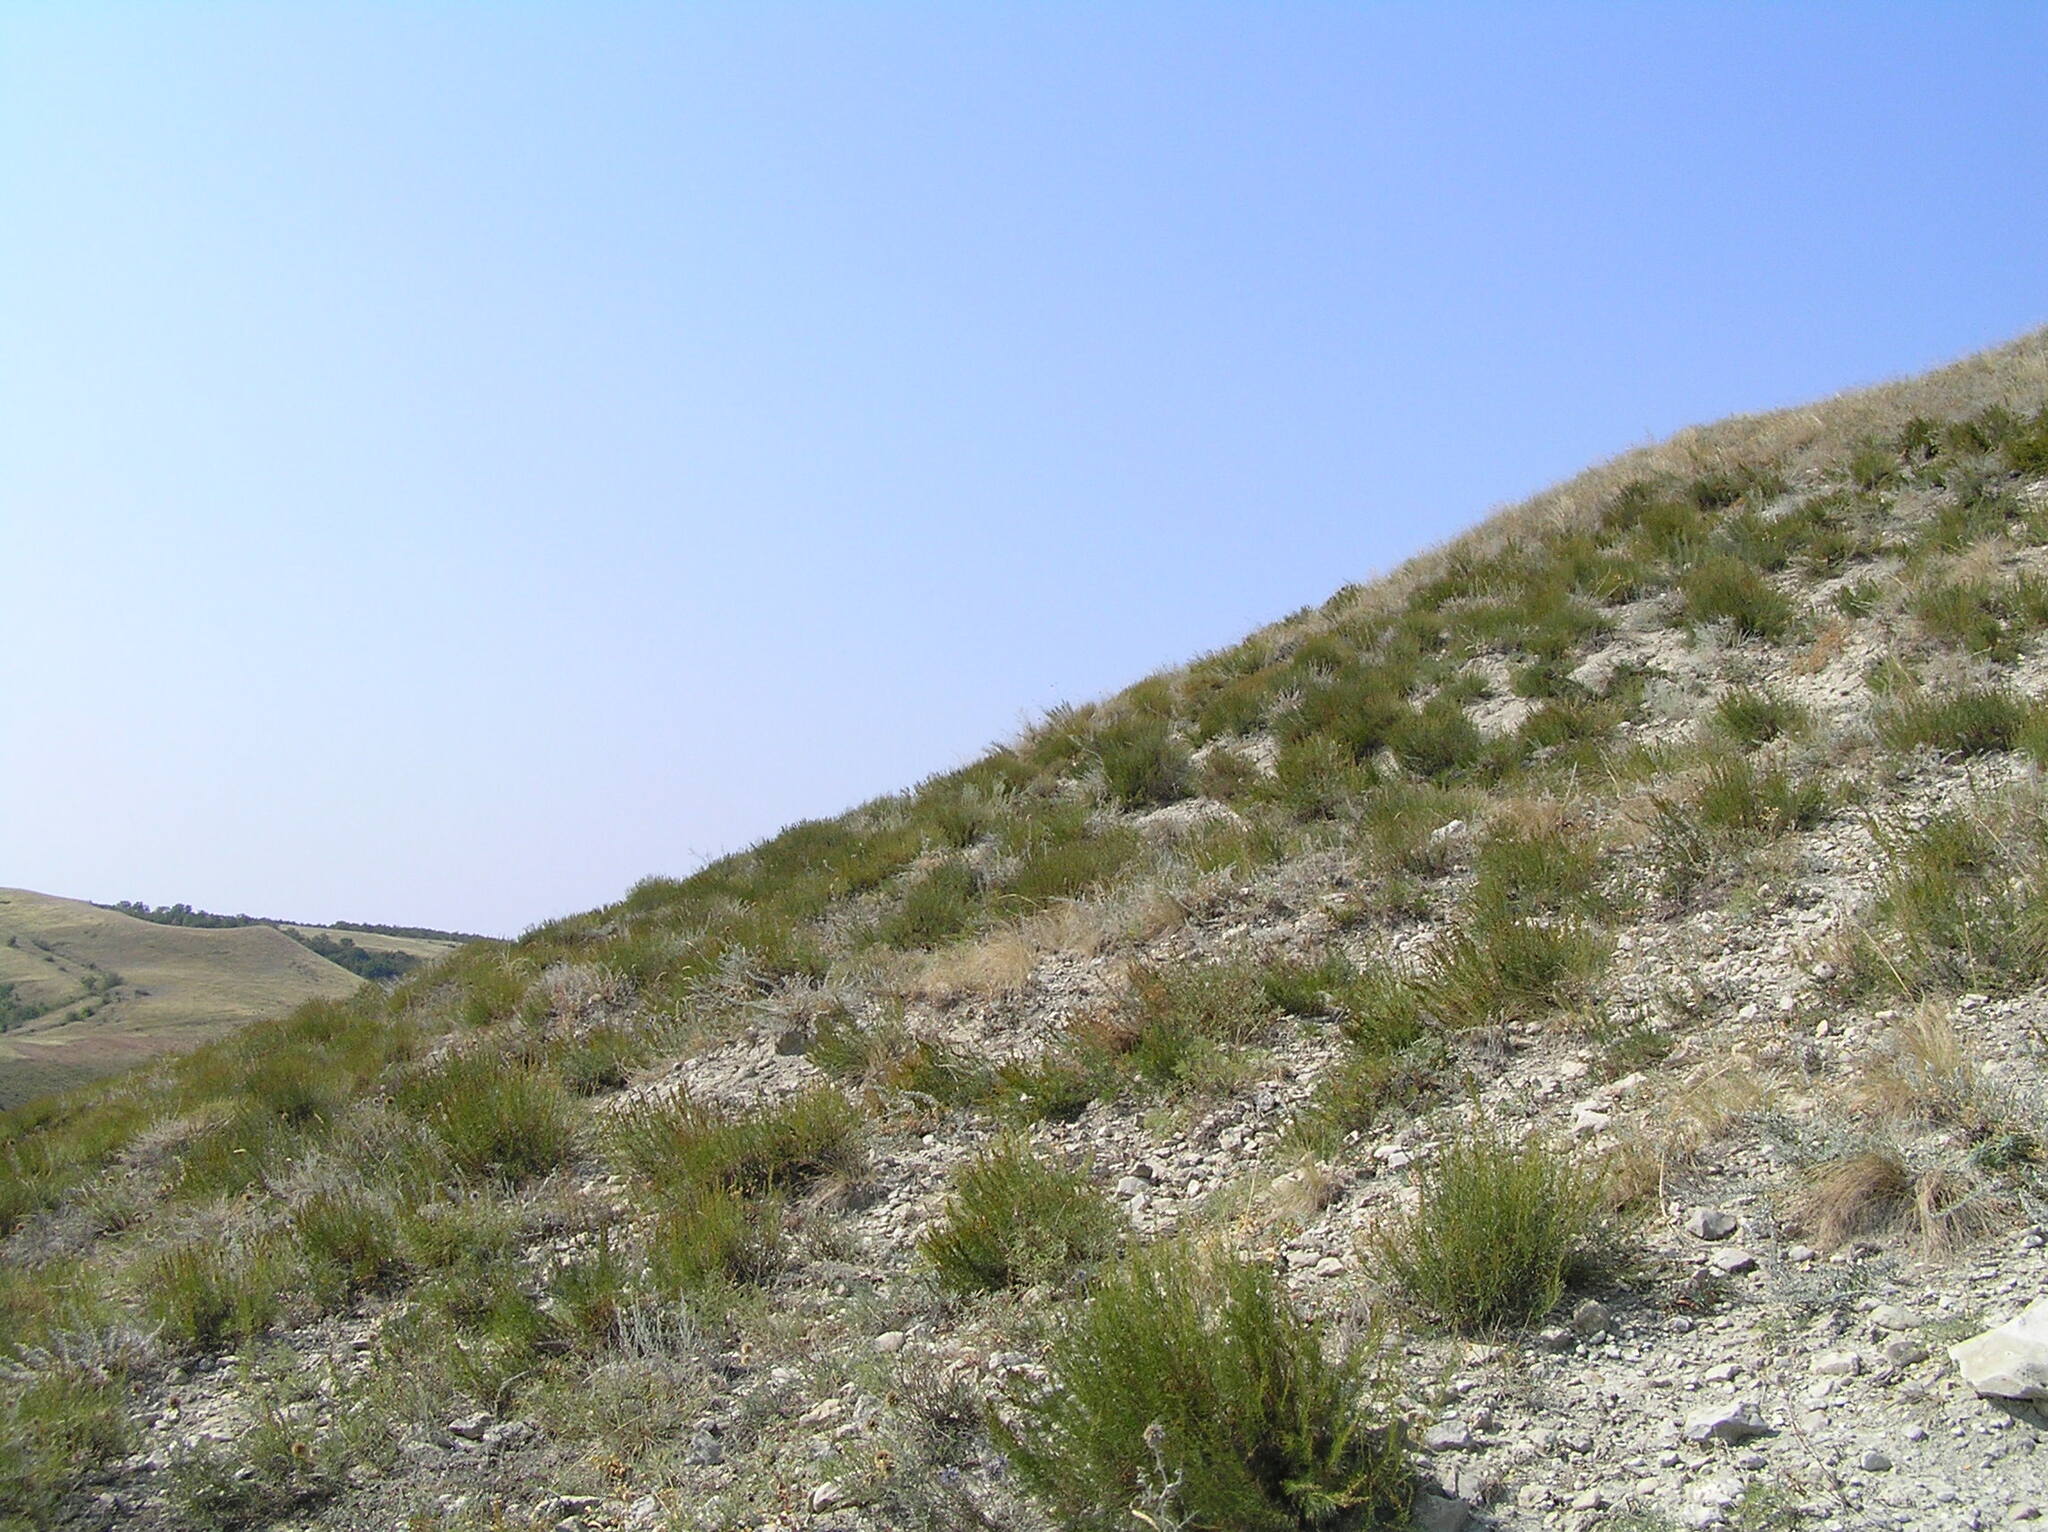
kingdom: Plantae
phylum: Tracheophyta
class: Magnoliopsida
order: Asterales
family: Asteraceae
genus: Artemisia
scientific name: Artemisia salsoloides
